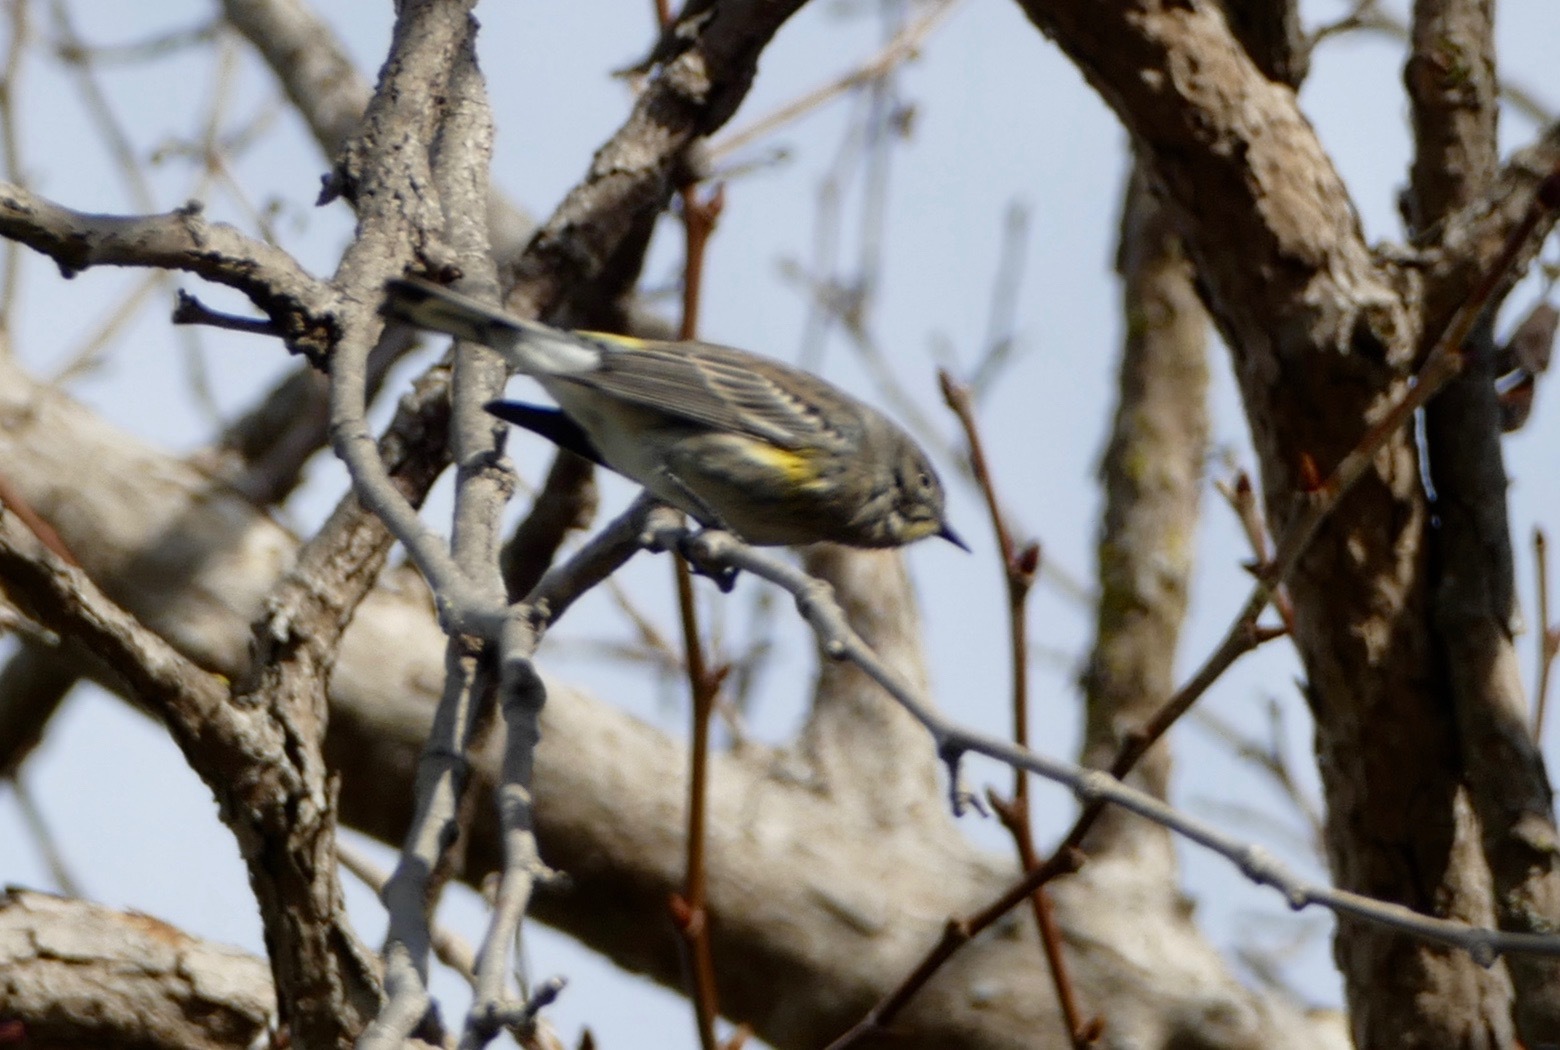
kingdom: Animalia
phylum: Chordata
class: Aves
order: Passeriformes
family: Parulidae
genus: Setophaga
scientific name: Setophaga coronata
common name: Myrtle warbler
